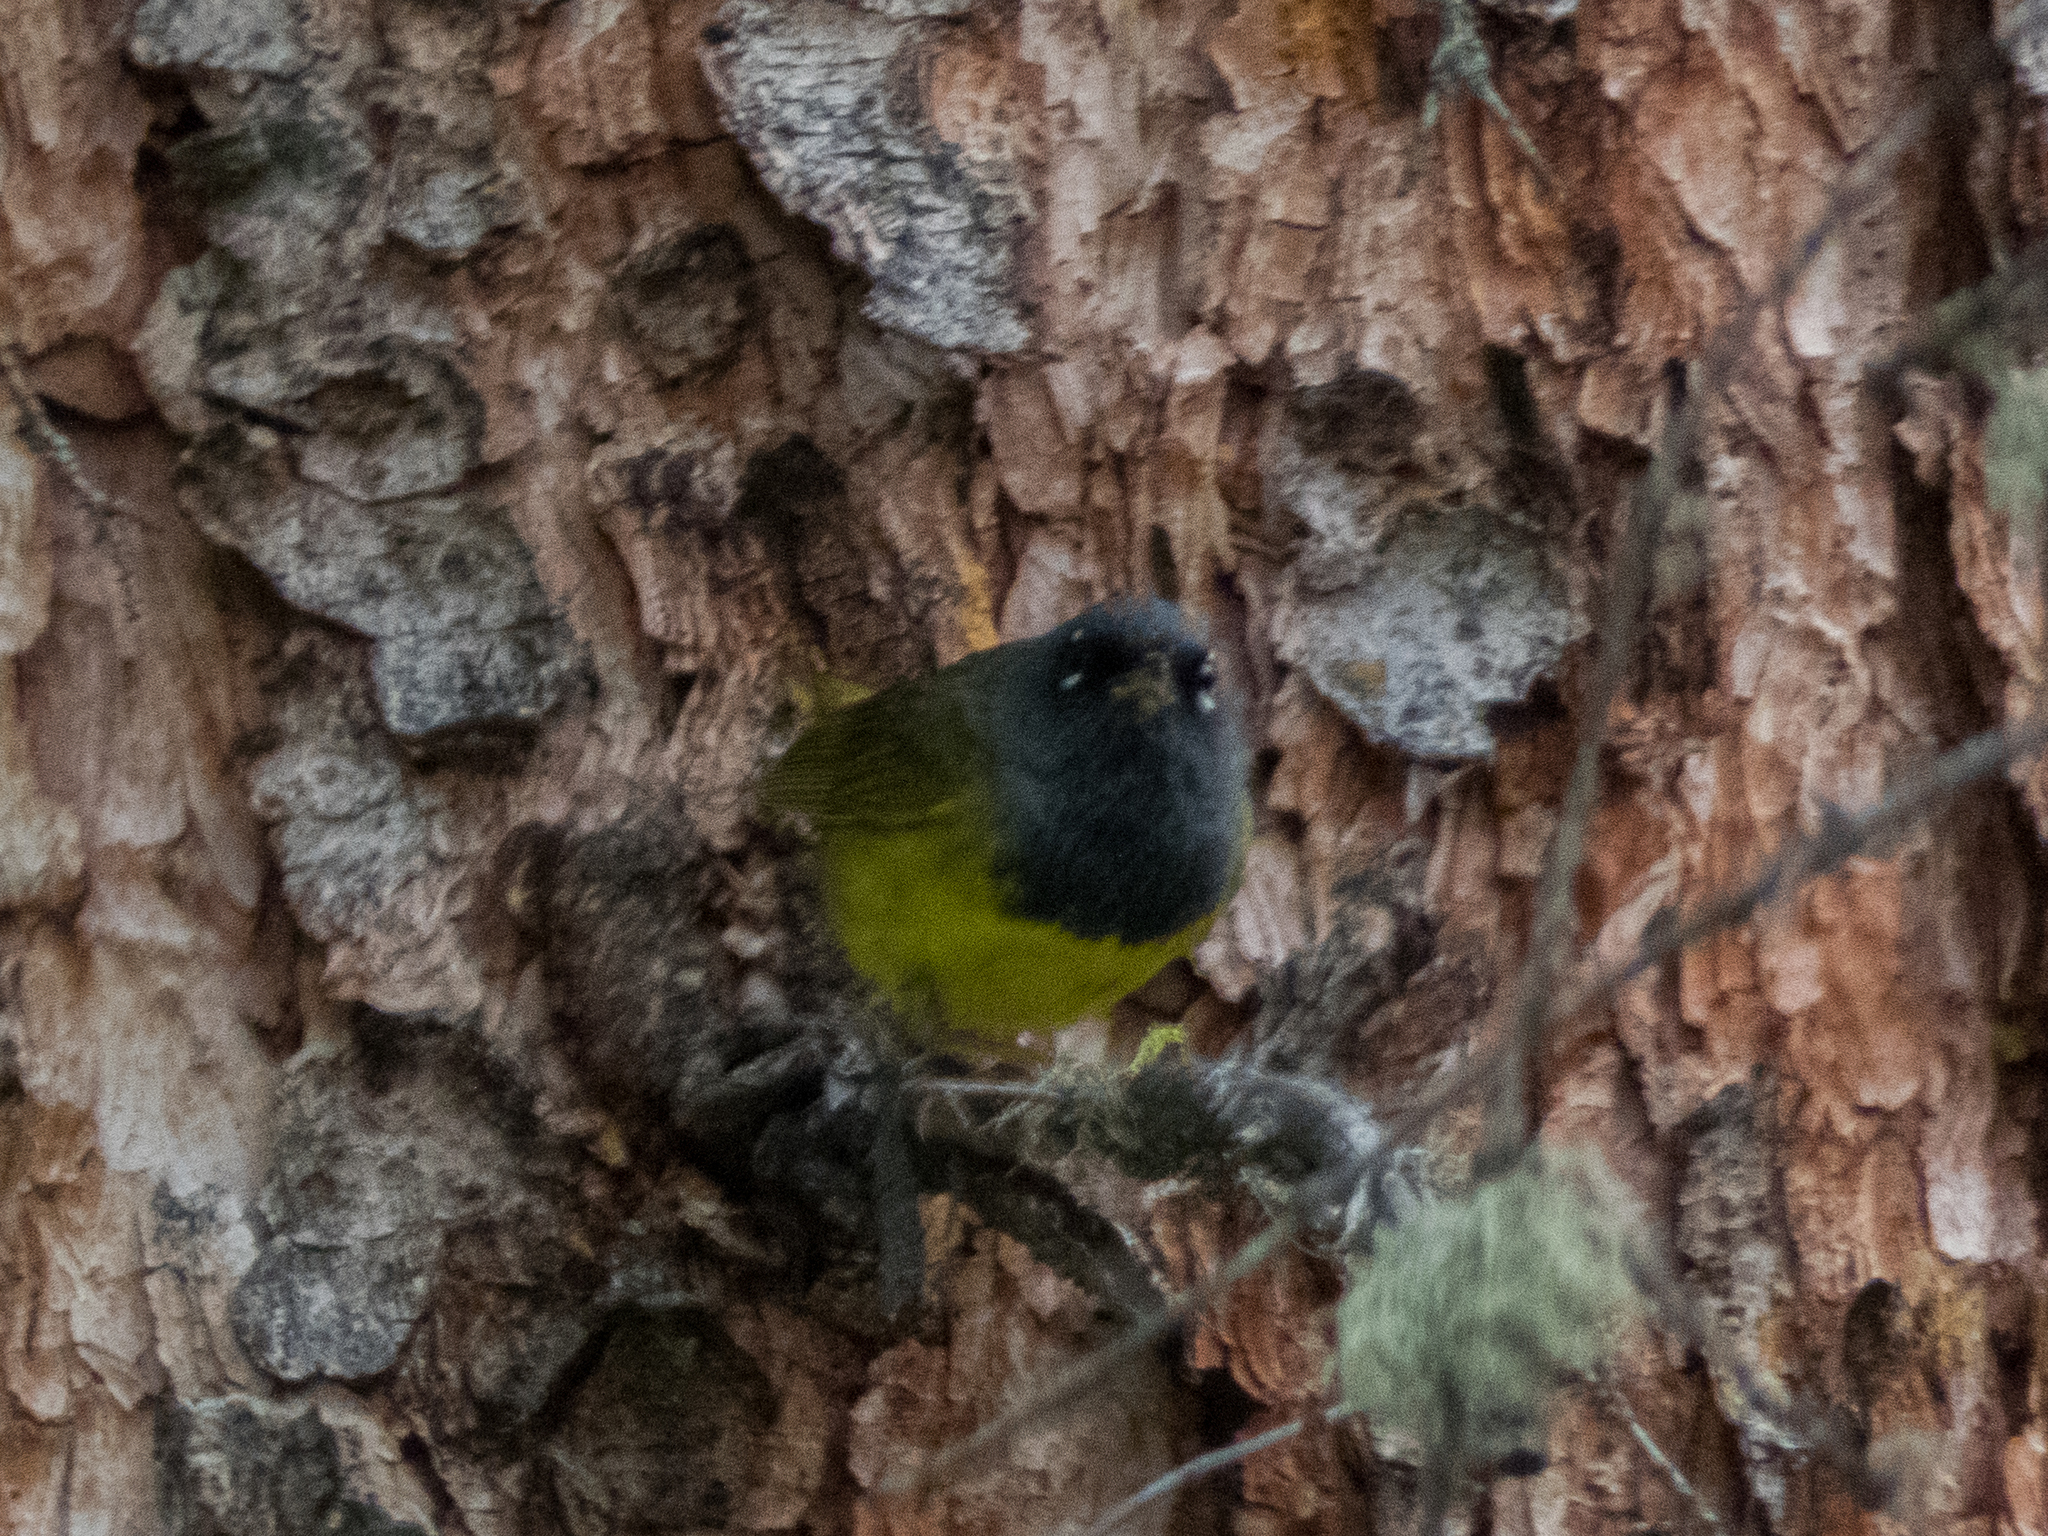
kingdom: Animalia
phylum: Chordata
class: Aves
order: Passeriformes
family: Parulidae
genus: Geothlypis
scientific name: Geothlypis tolmiei
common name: Macgillivray's warbler
